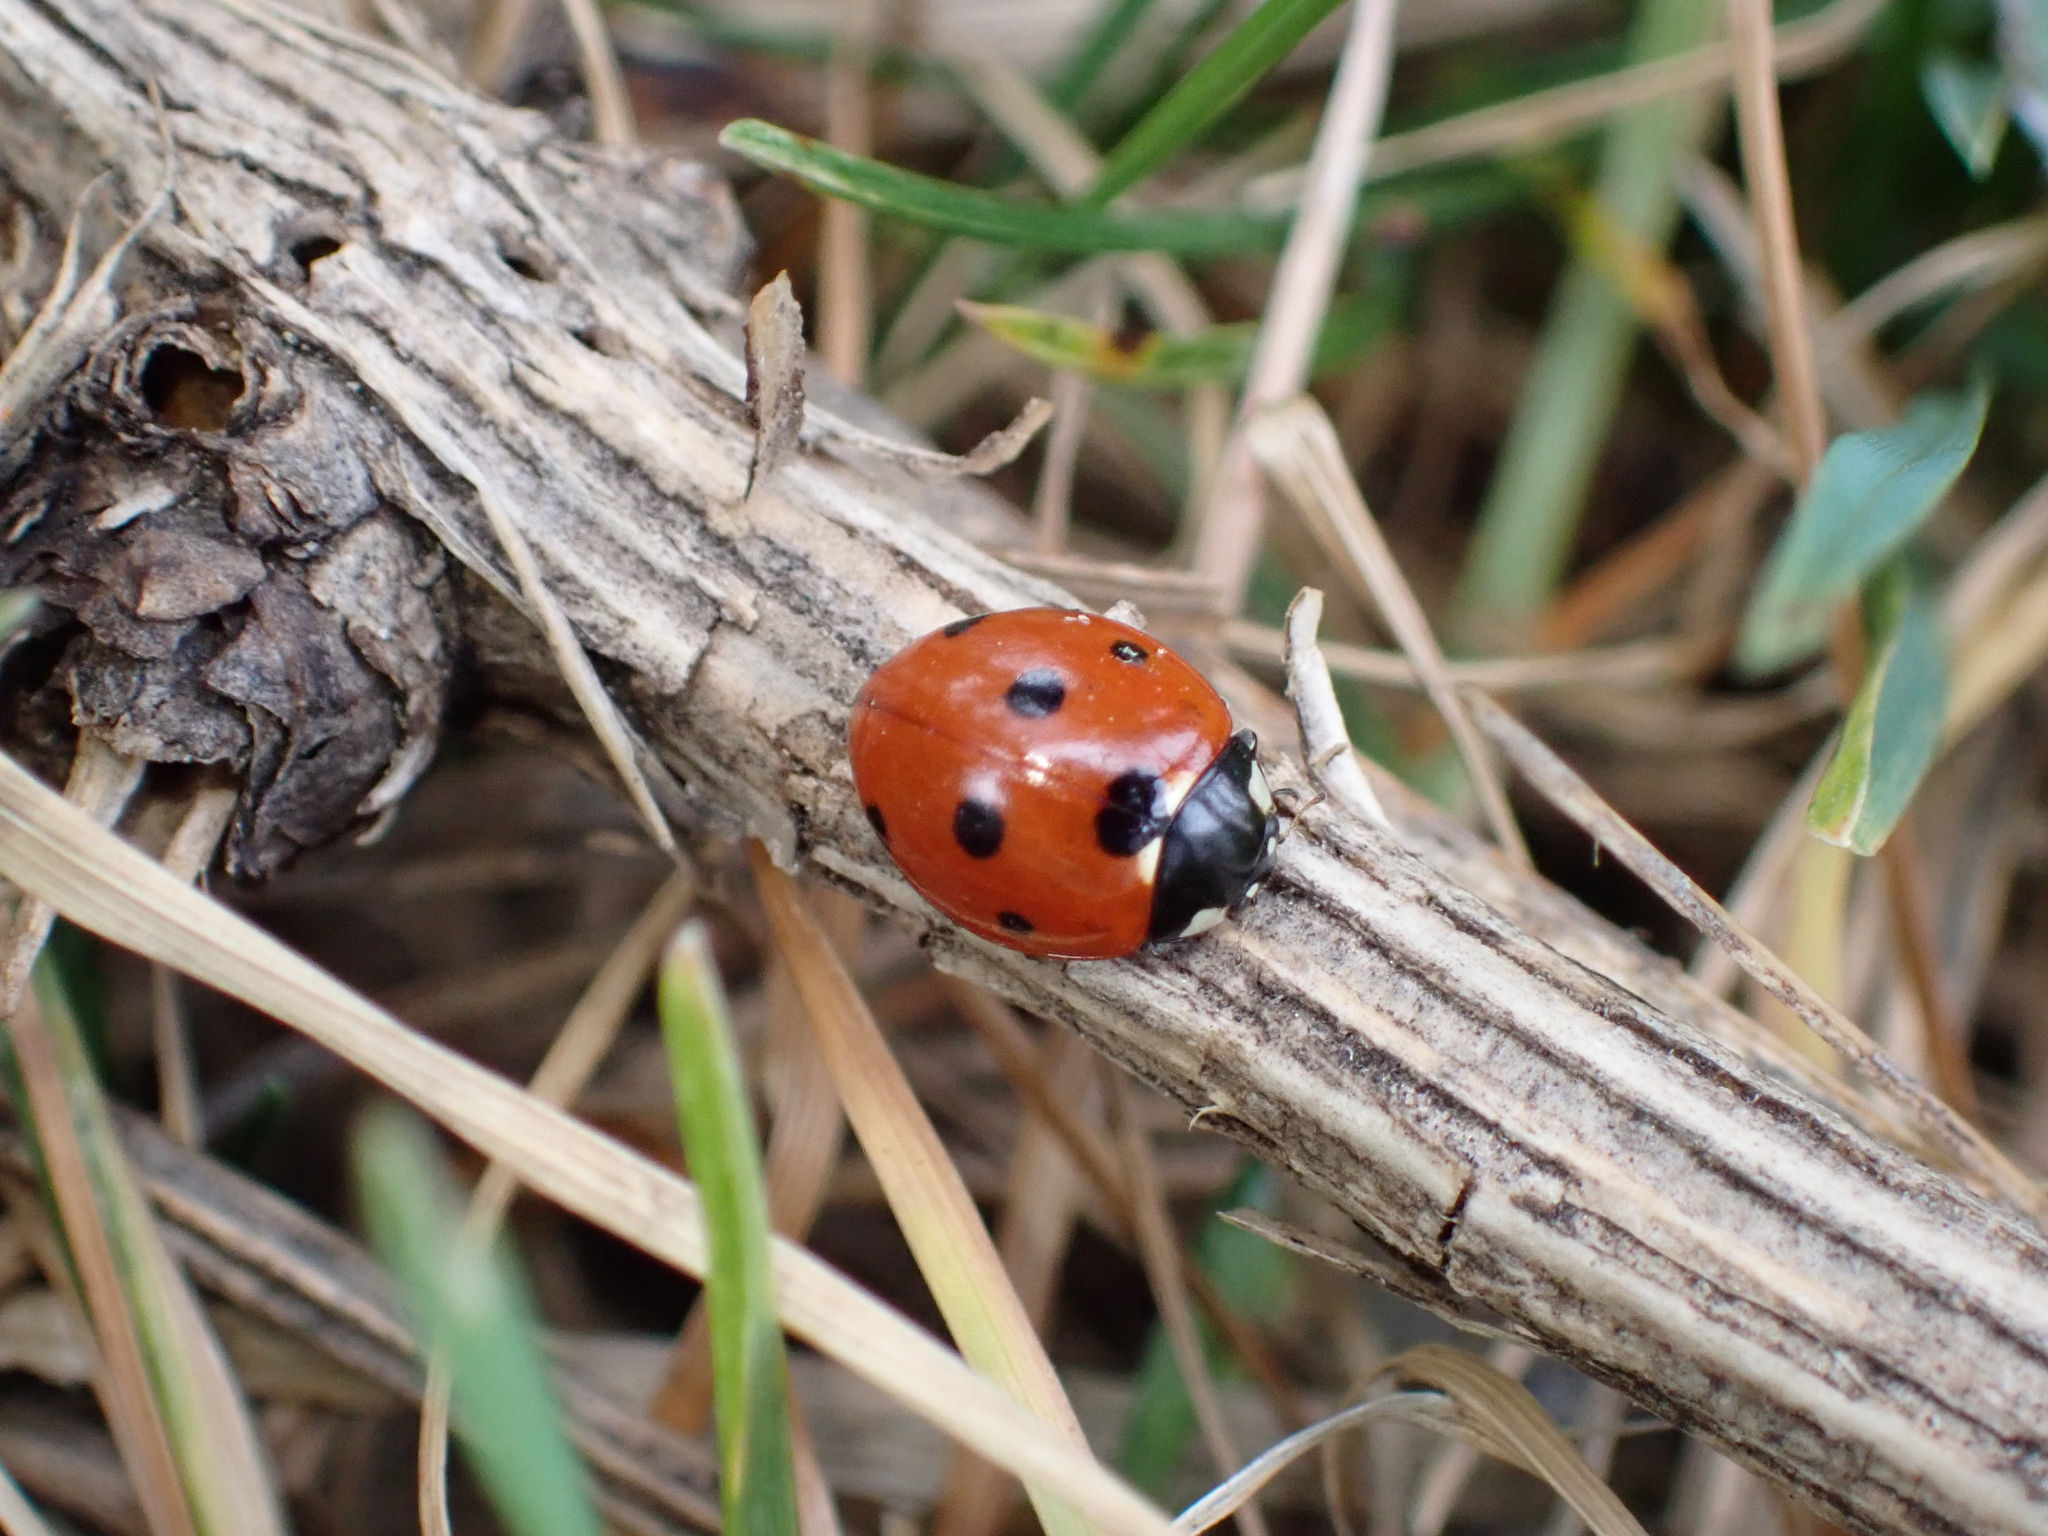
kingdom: Animalia
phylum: Arthropoda
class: Insecta
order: Coleoptera
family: Coccinellidae
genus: Coccinella
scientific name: Coccinella septempunctata
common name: Sevenspotted lady beetle
